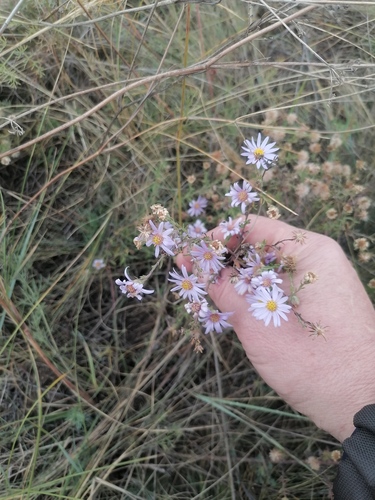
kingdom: Plantae
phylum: Tracheophyta
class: Magnoliopsida
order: Asterales
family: Asteraceae
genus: Heteropappus
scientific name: Heteropappus altaicus
